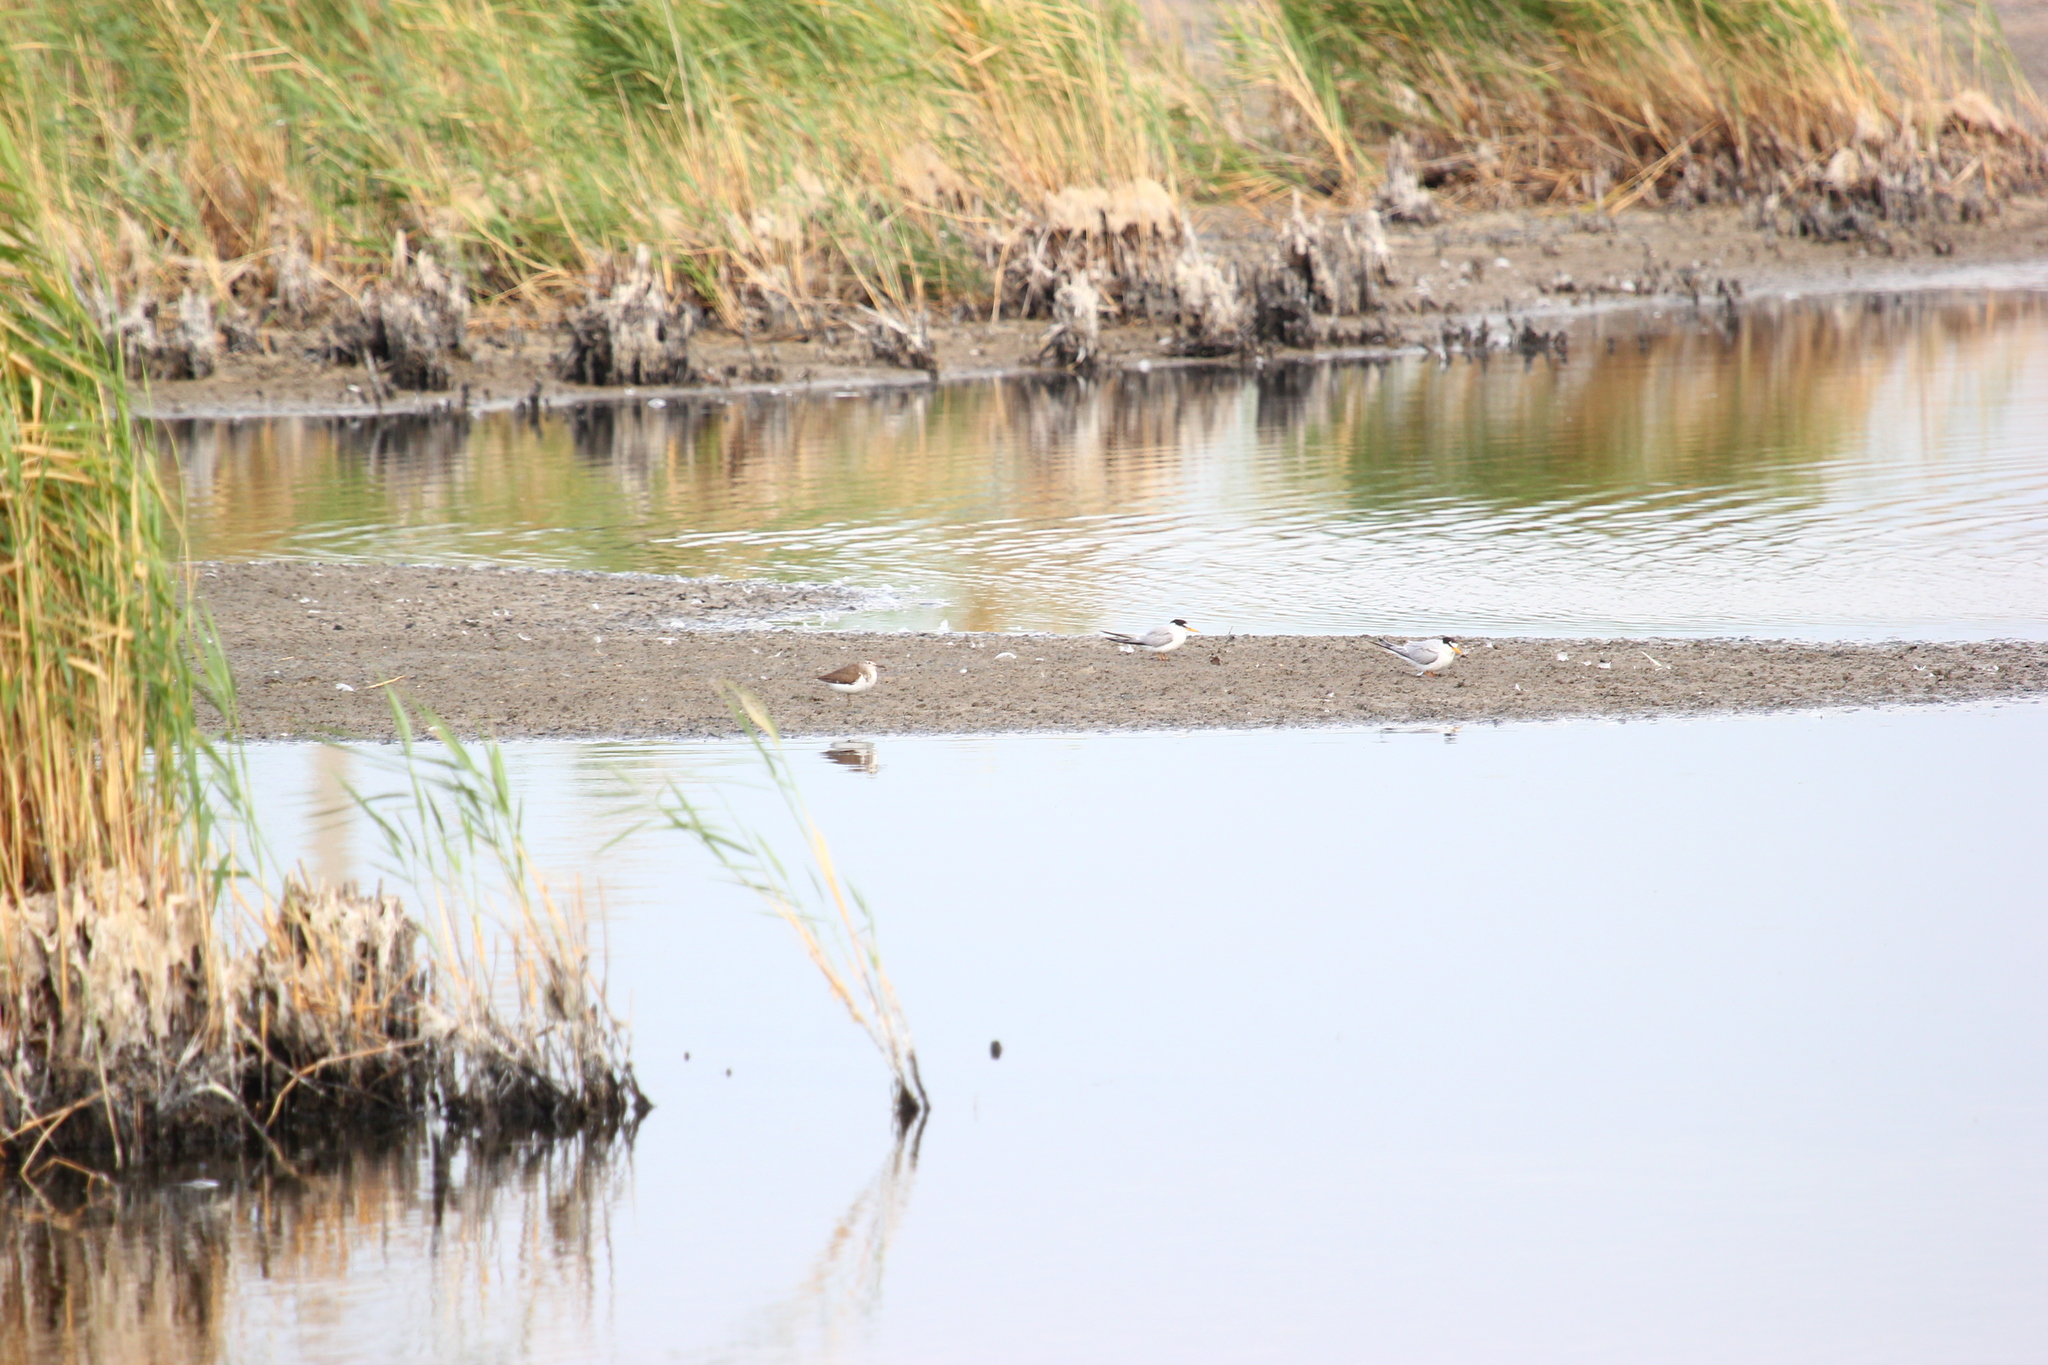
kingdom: Animalia
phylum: Chordata
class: Aves
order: Charadriiformes
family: Scolopacidae
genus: Actitis
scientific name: Actitis hypoleucos
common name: Common sandpiper
